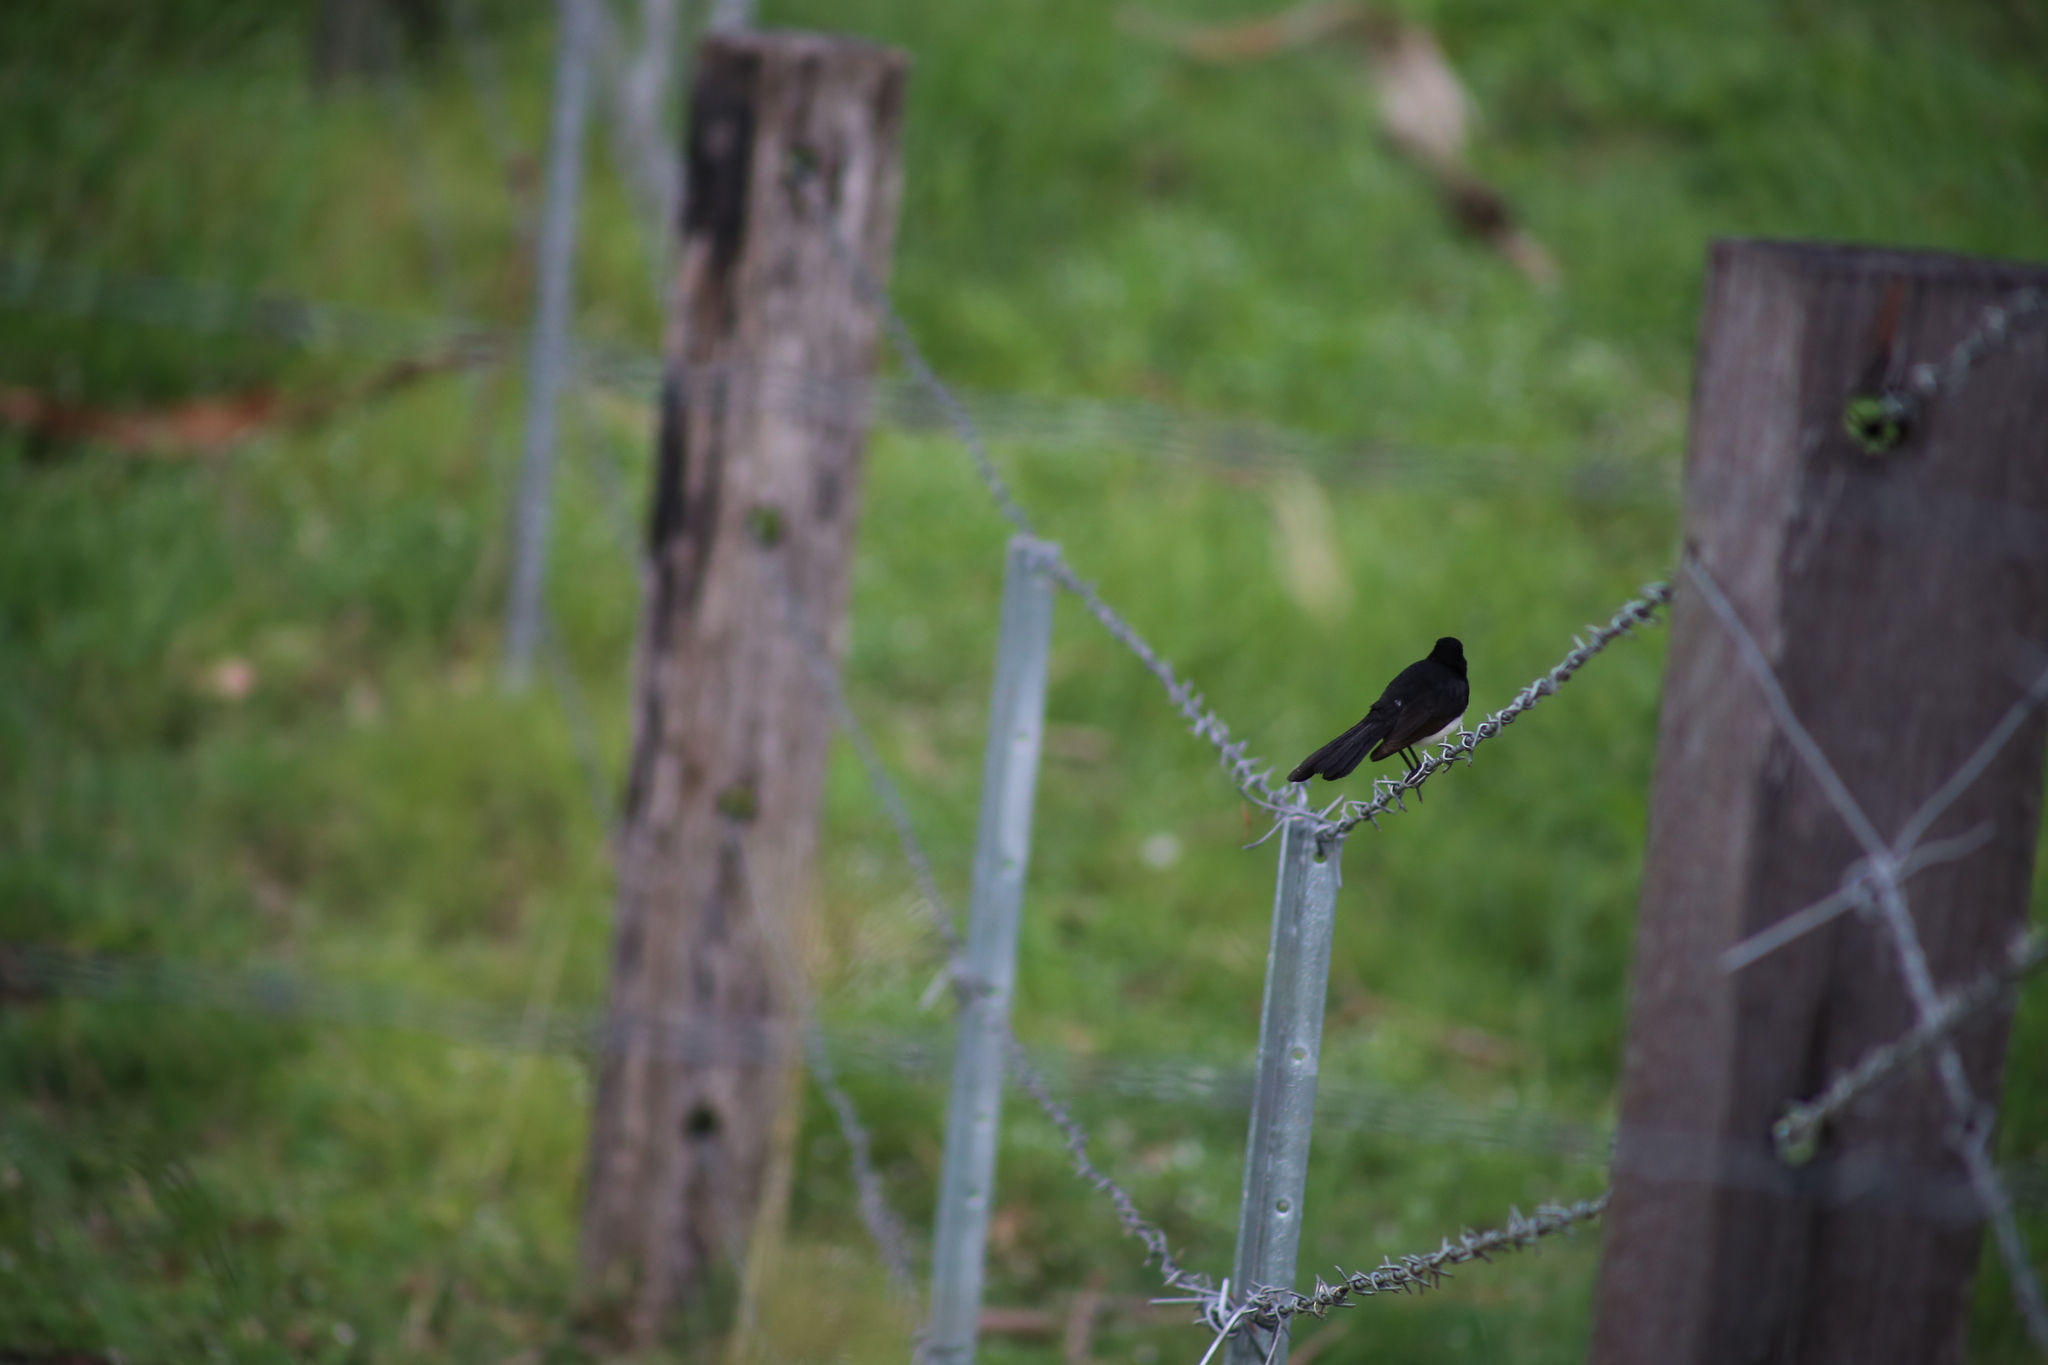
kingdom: Animalia
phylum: Chordata
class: Aves
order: Passeriformes
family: Rhipiduridae
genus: Rhipidura
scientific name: Rhipidura leucophrys
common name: Willie wagtail
